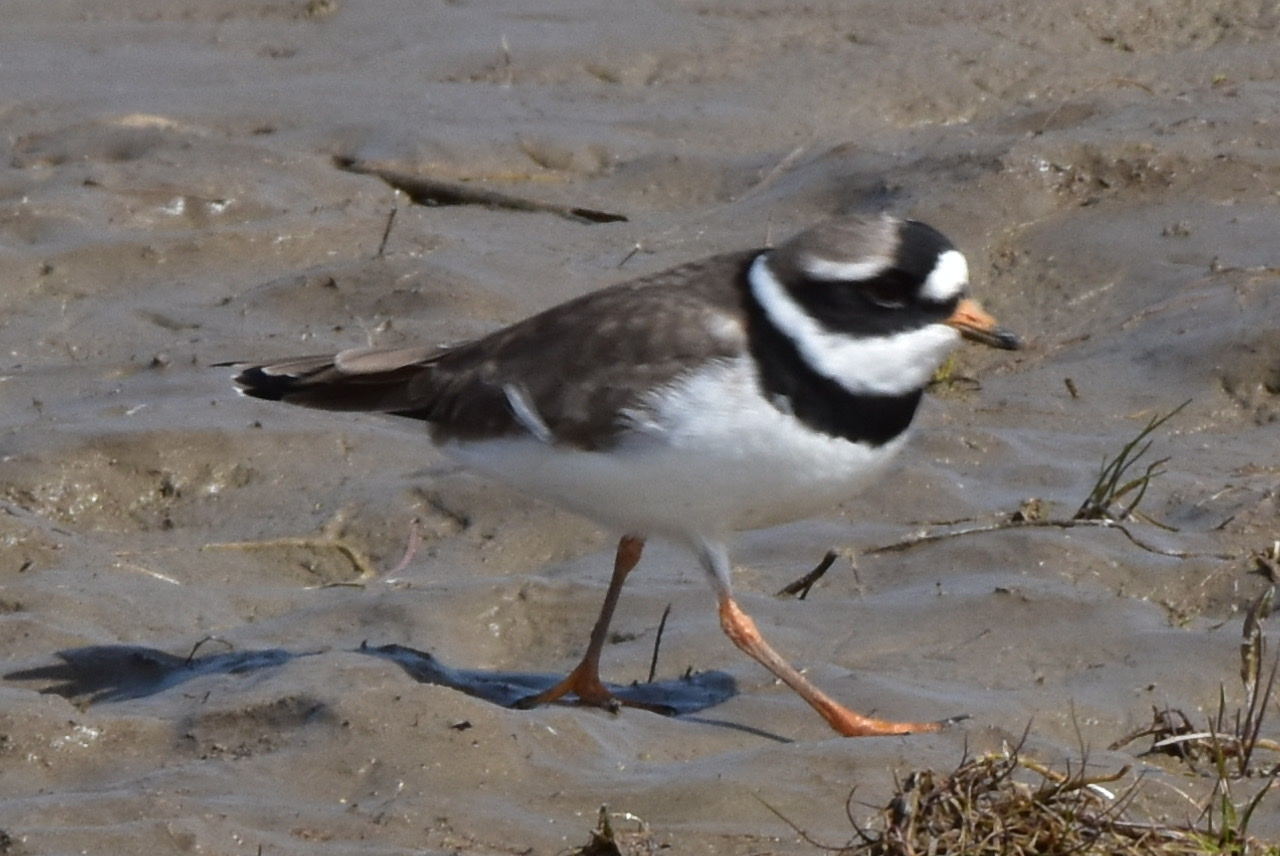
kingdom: Animalia
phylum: Chordata
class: Aves
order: Charadriiformes
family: Charadriidae
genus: Charadrius
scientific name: Charadrius hiaticula
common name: Common ringed plover
